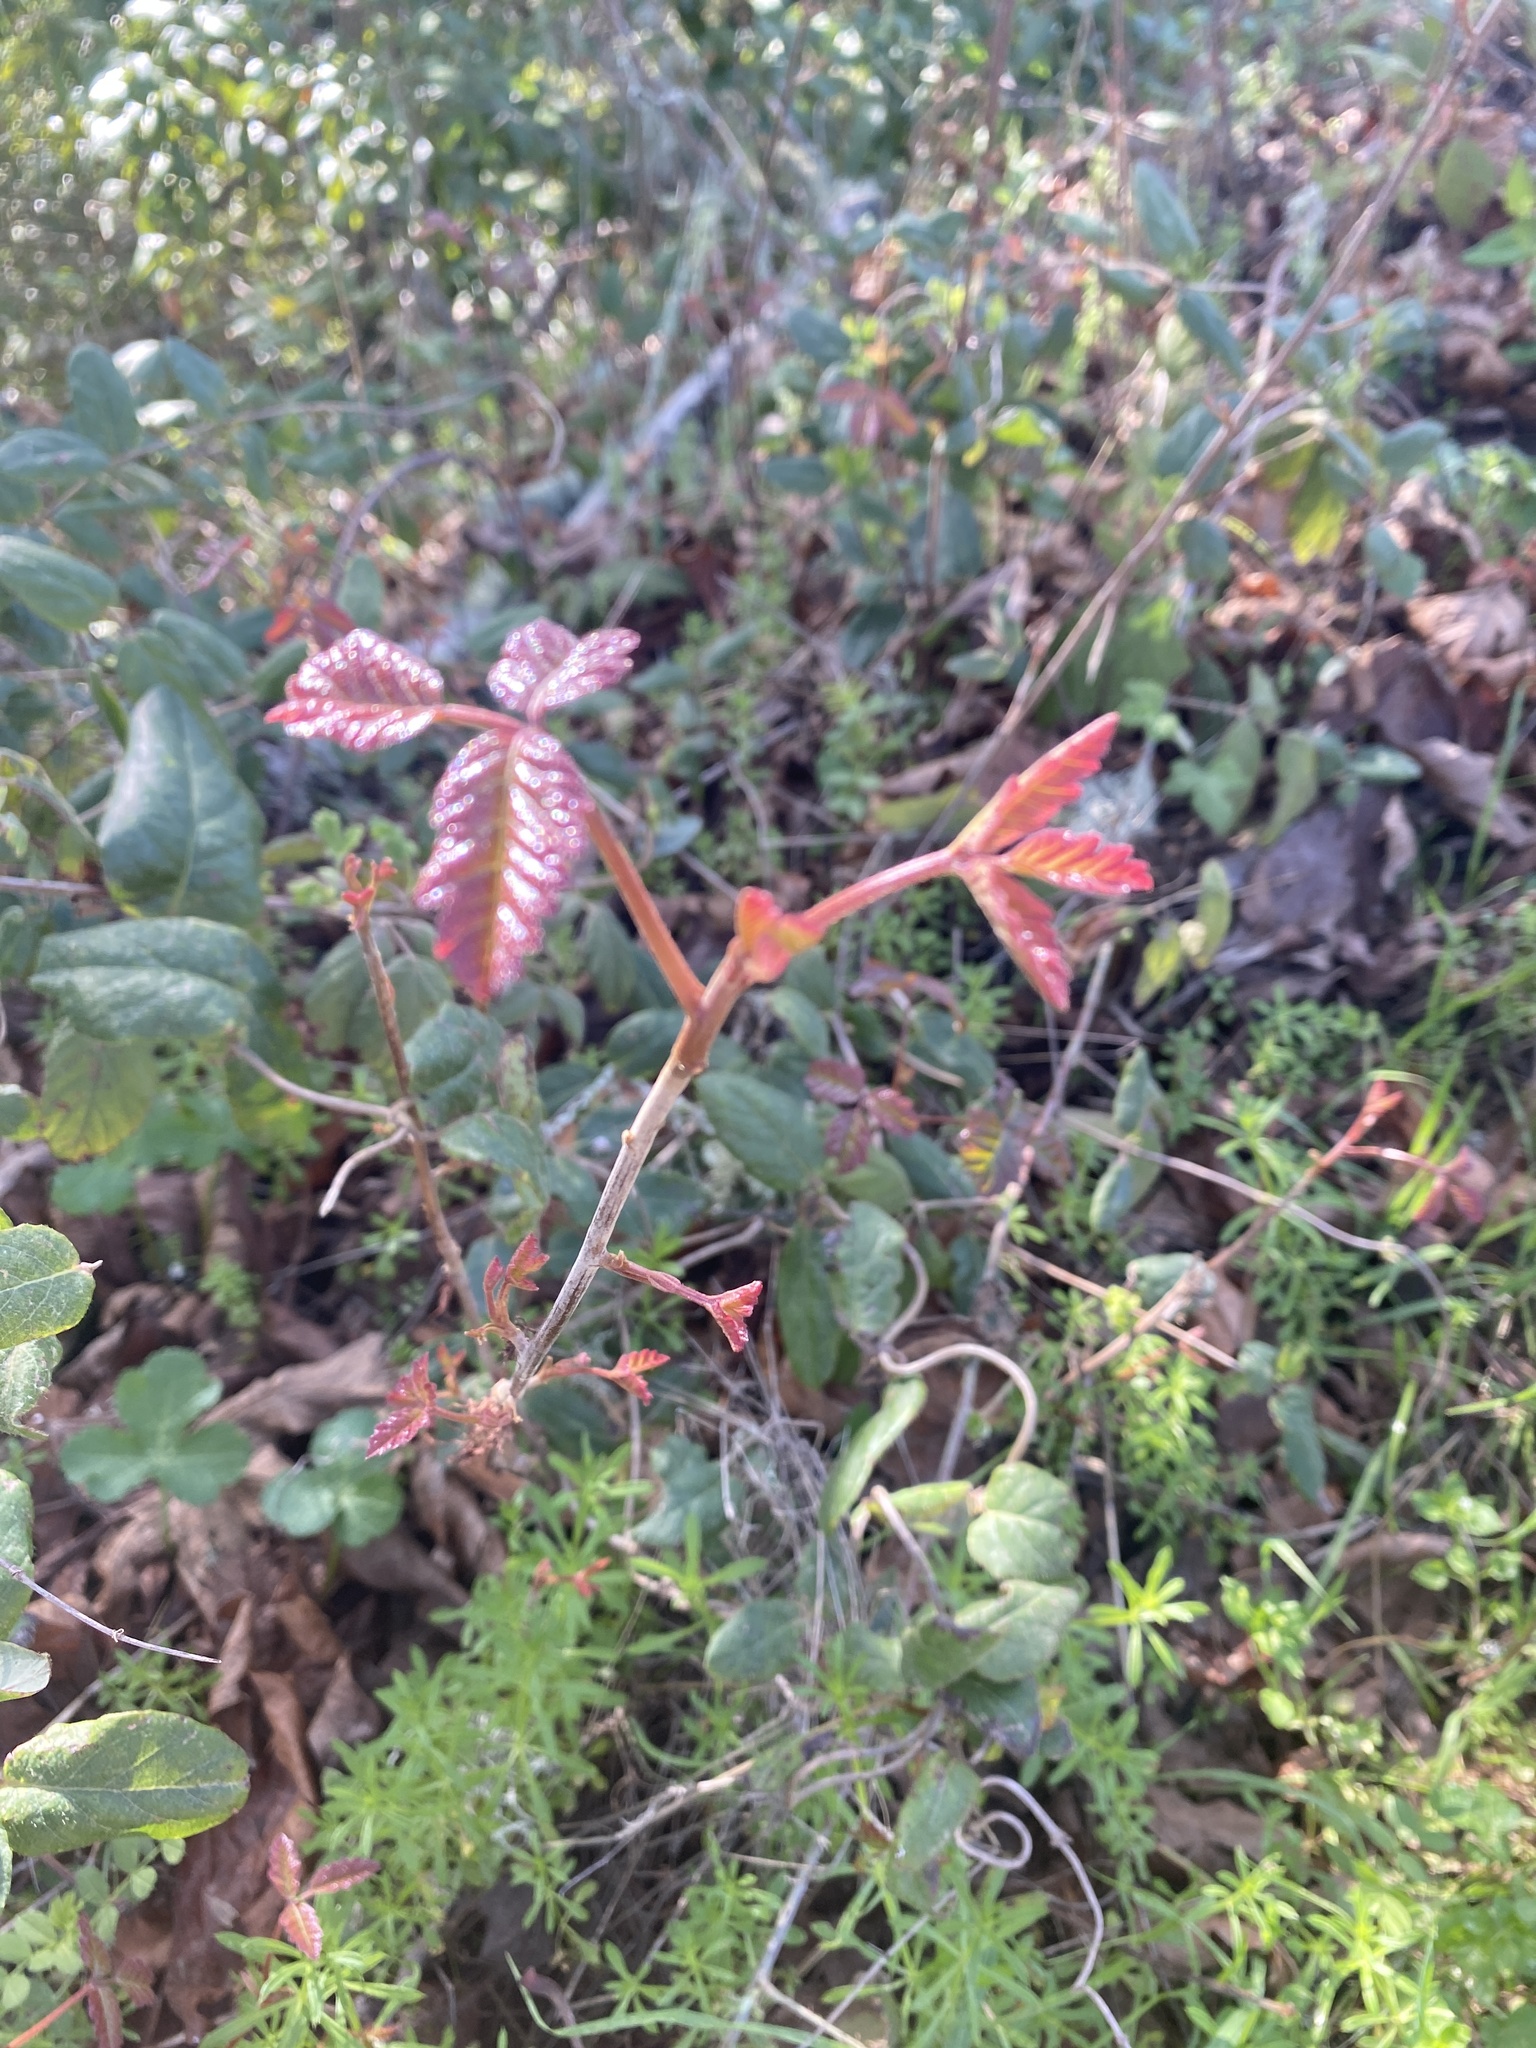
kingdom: Plantae
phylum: Tracheophyta
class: Magnoliopsida
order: Sapindales
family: Anacardiaceae
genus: Toxicodendron
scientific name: Toxicodendron diversilobum
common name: Pacific poison-oak
